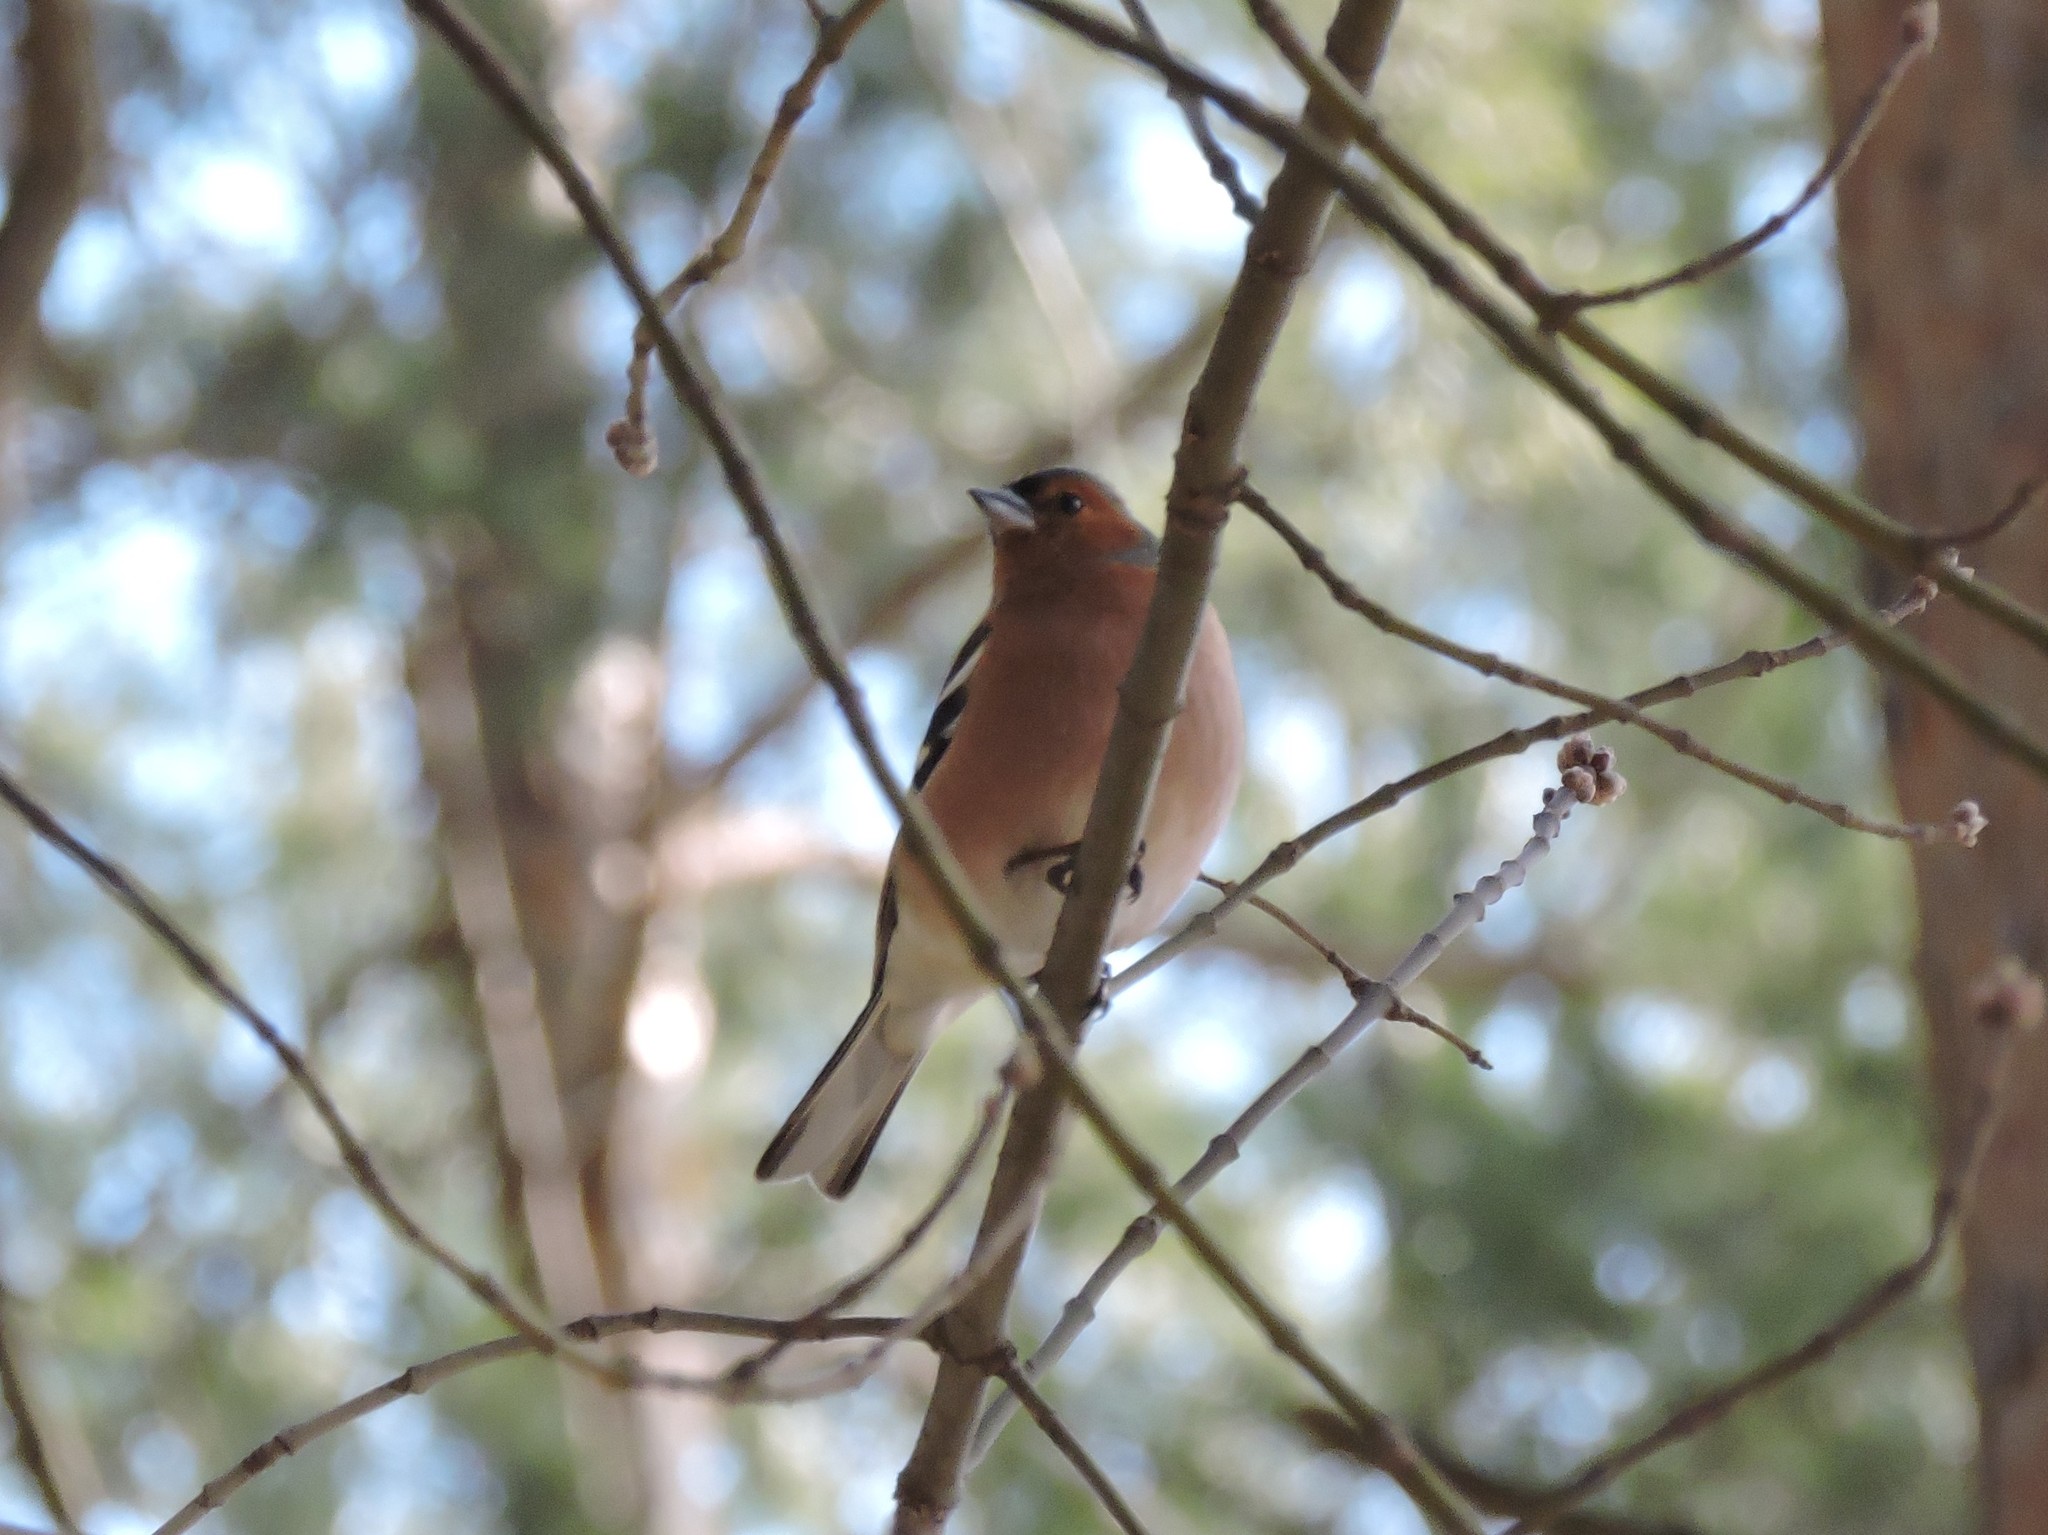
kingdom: Animalia
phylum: Chordata
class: Aves
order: Passeriformes
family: Fringillidae
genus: Fringilla
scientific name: Fringilla coelebs
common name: Common chaffinch
